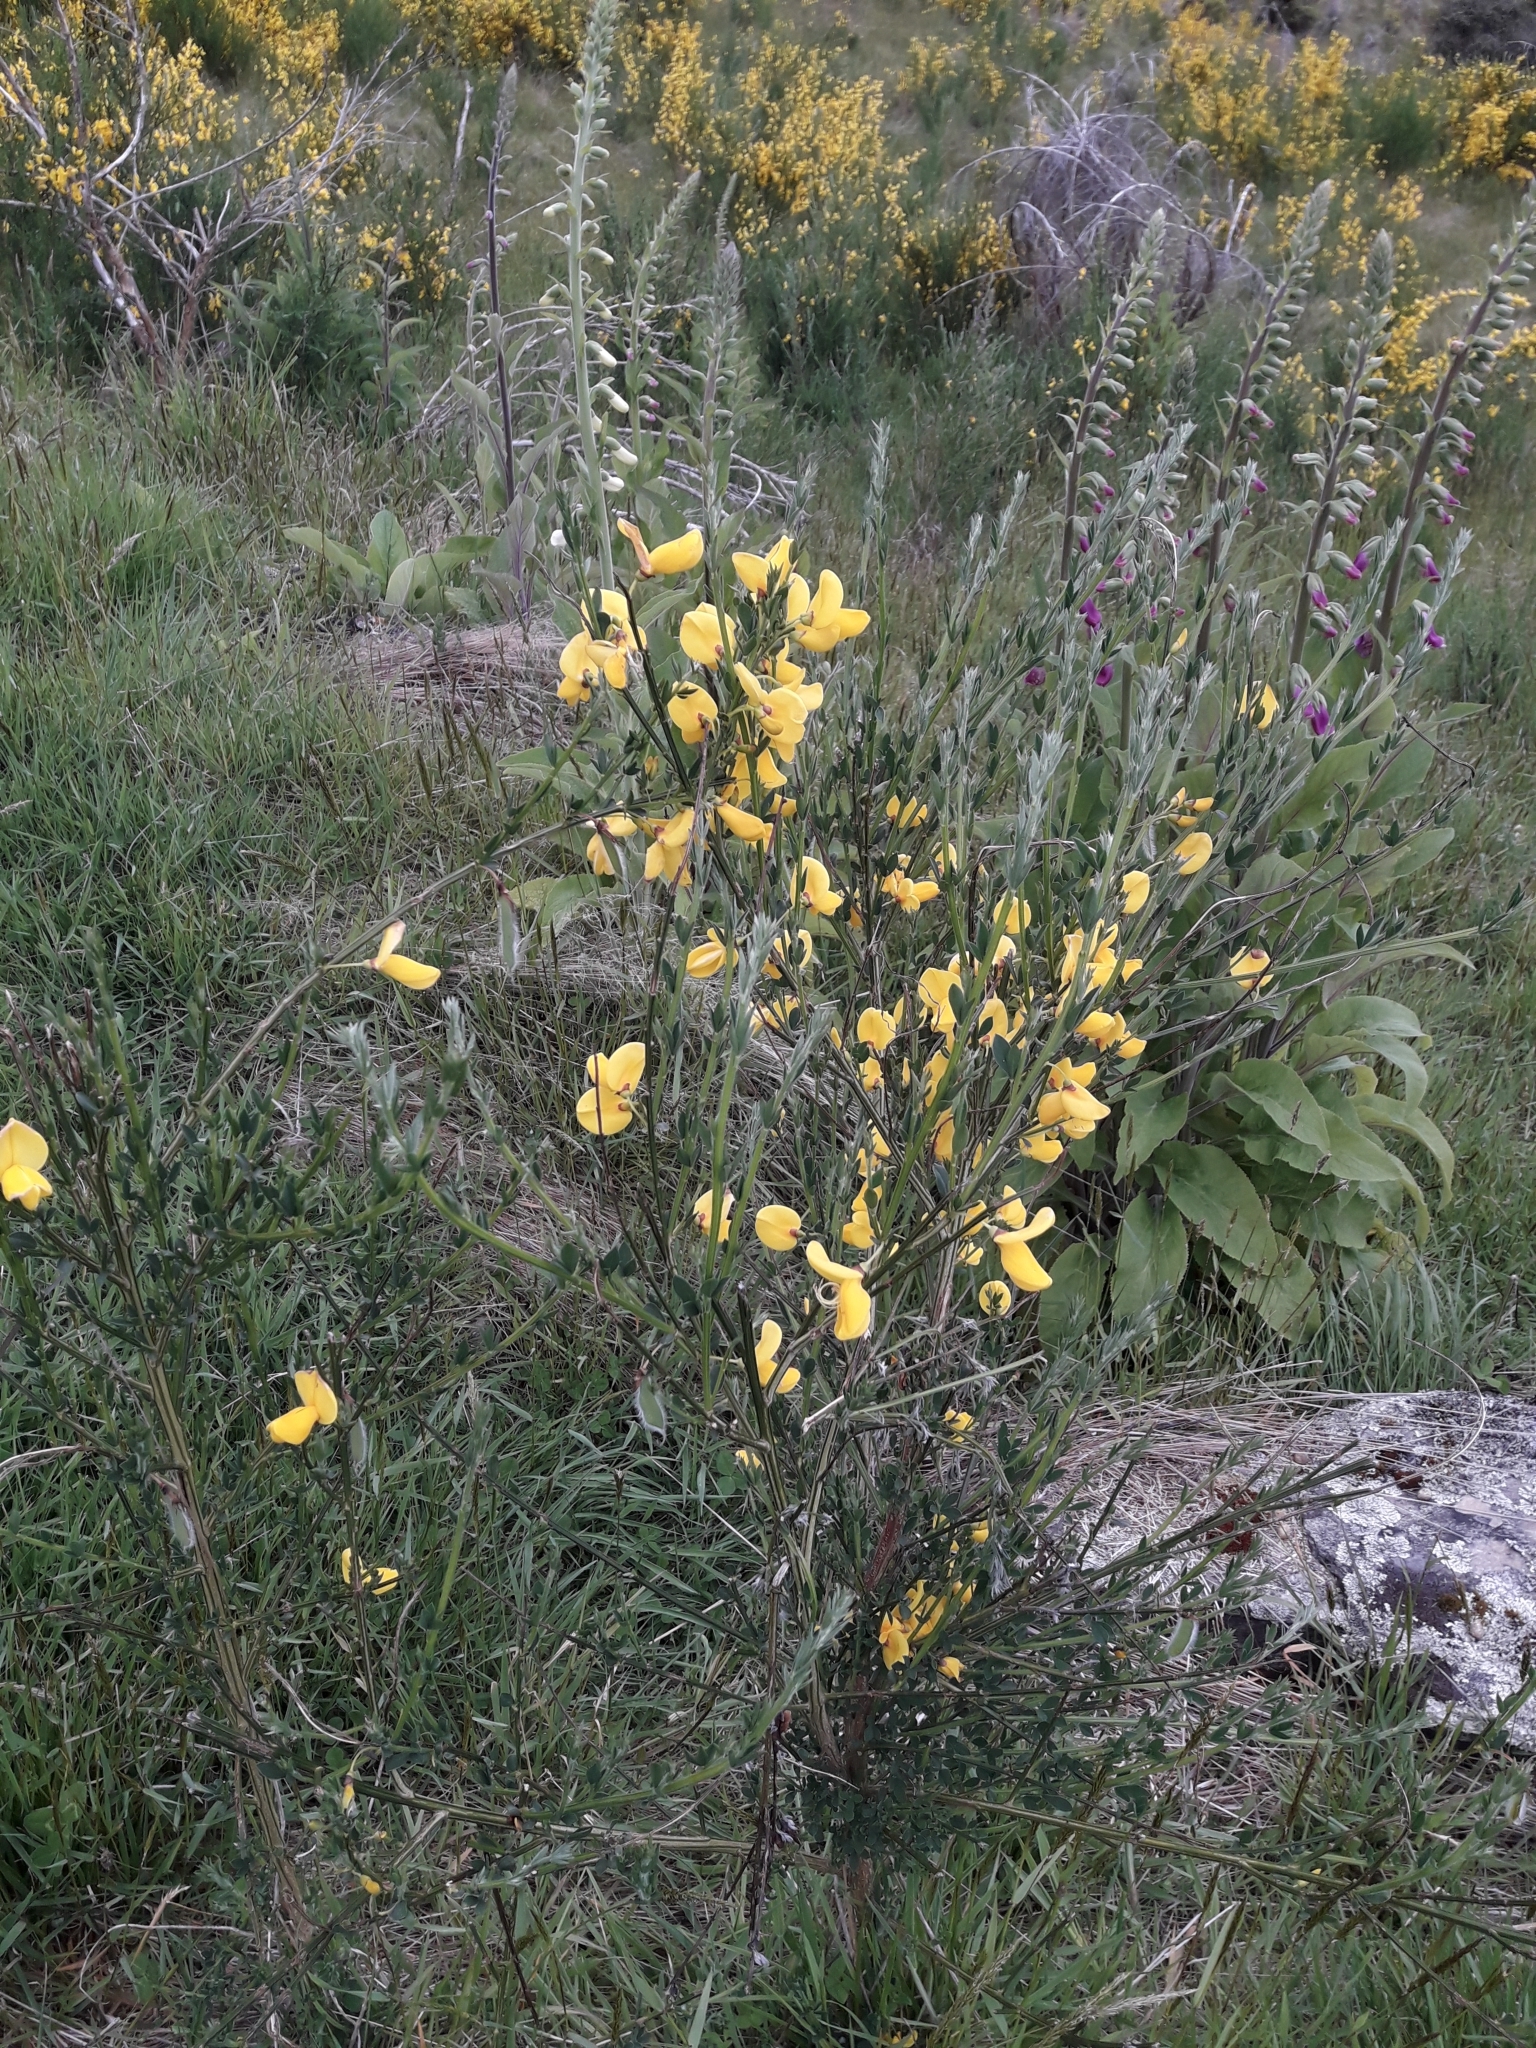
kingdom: Plantae
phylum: Tracheophyta
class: Magnoliopsida
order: Fabales
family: Fabaceae
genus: Cytisus
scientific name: Cytisus scoparius
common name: Scotch broom
